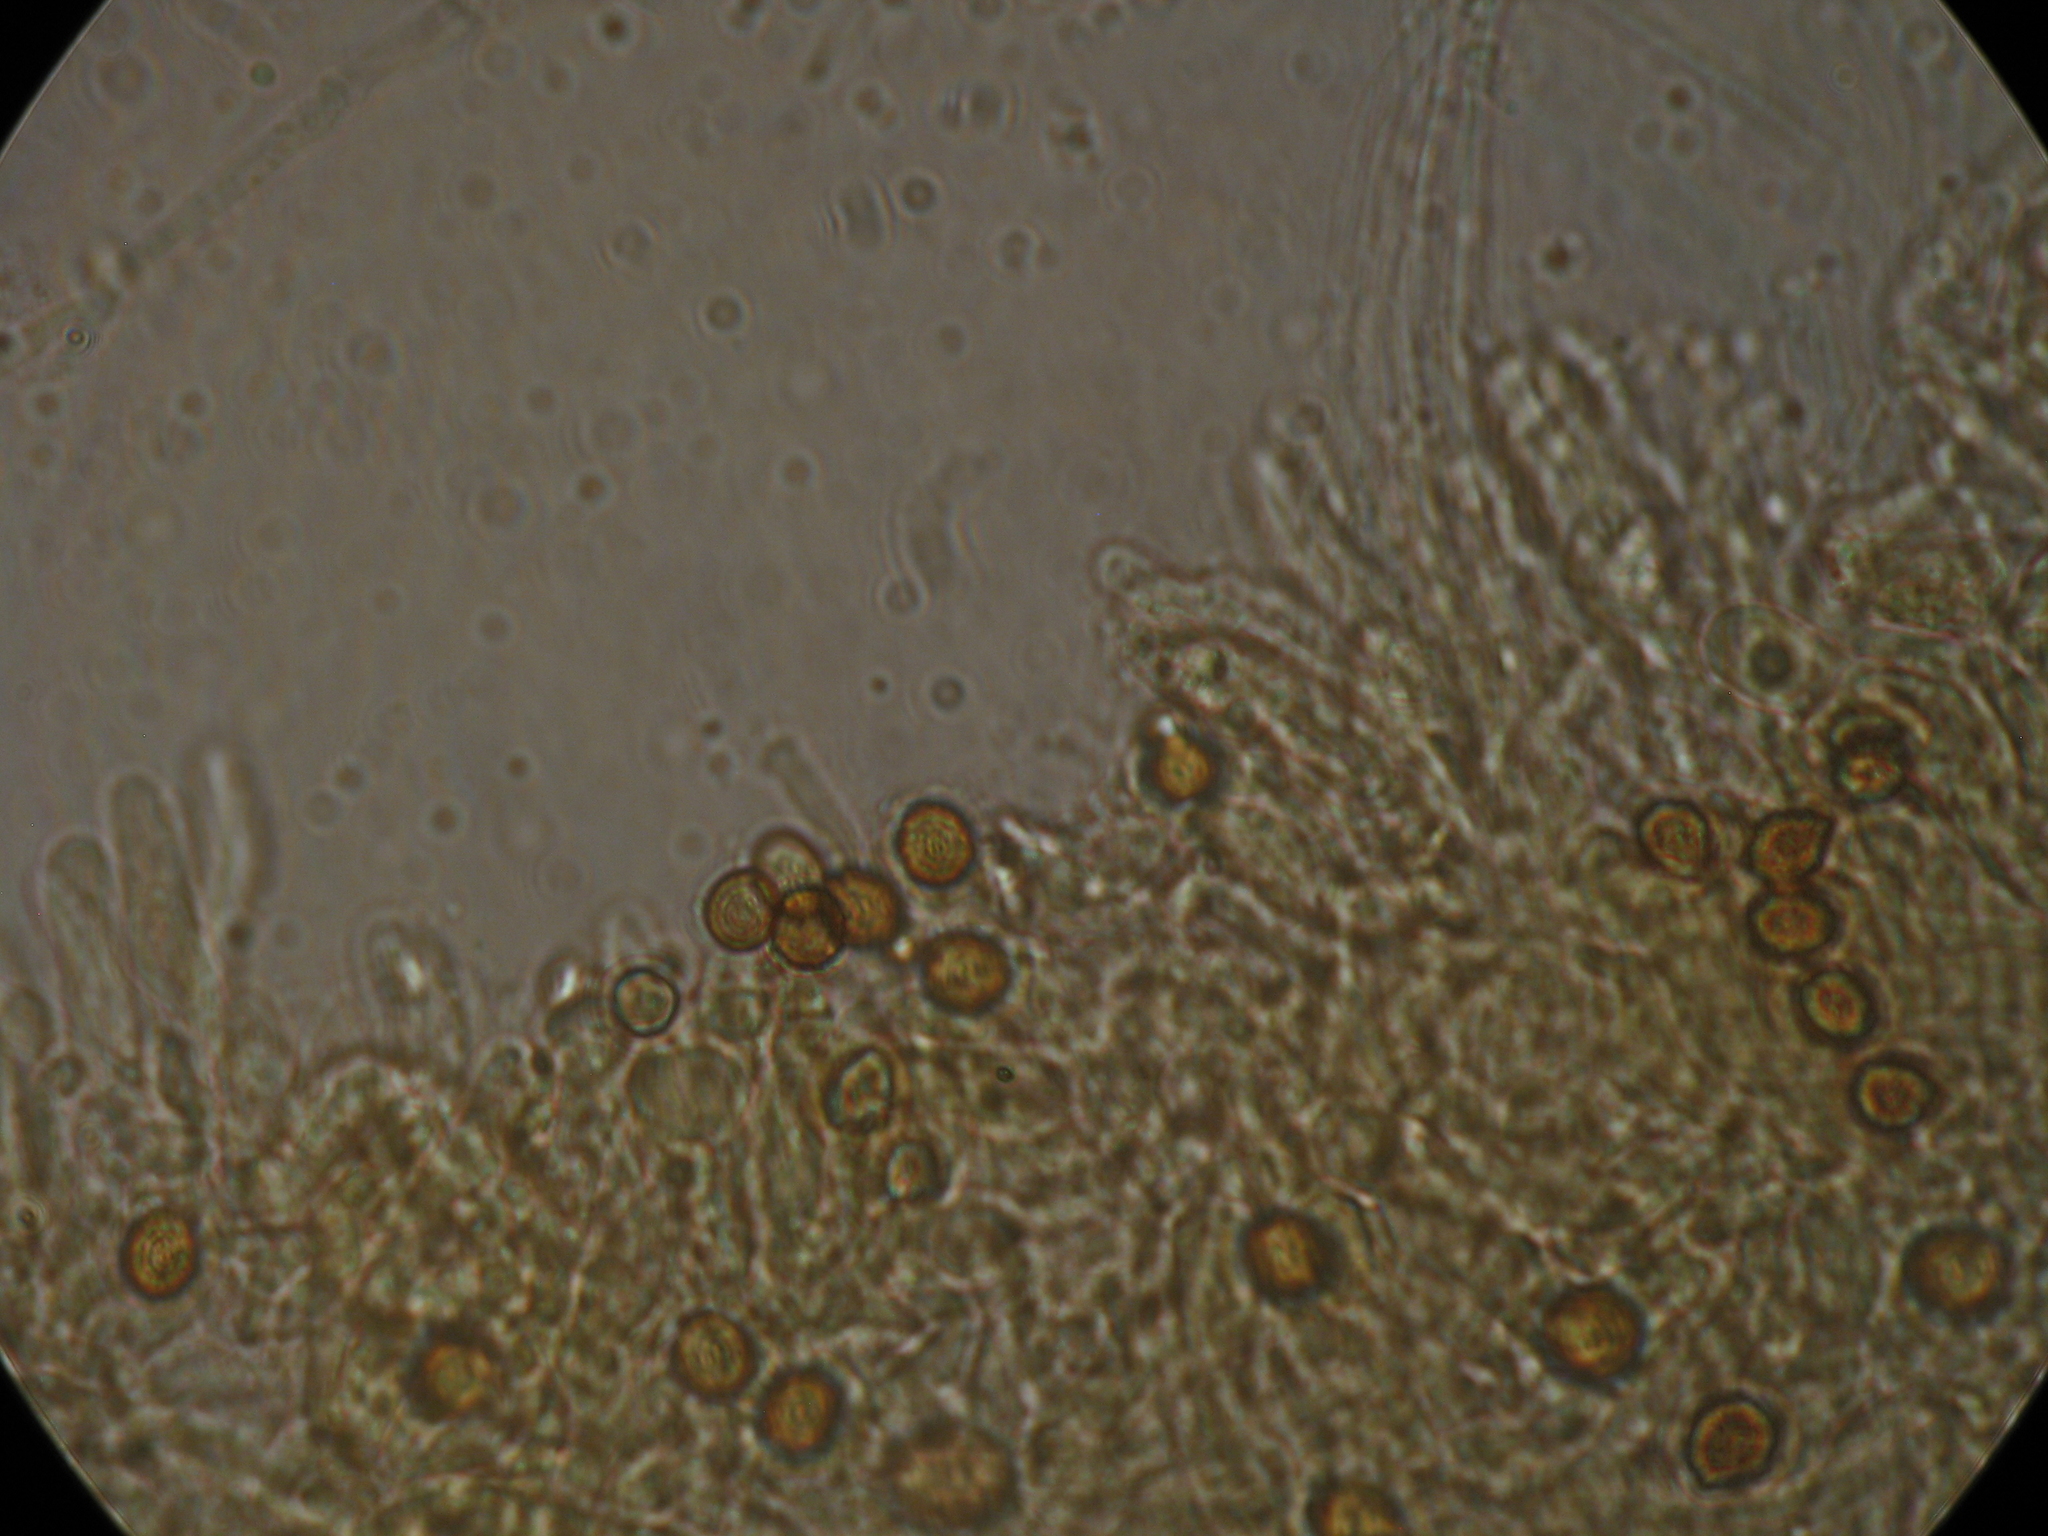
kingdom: Fungi
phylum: Basidiomycota
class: Agaricomycetes
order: Agaricales
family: Cortinariaceae
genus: Cortinarius
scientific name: Cortinarius tessiae
